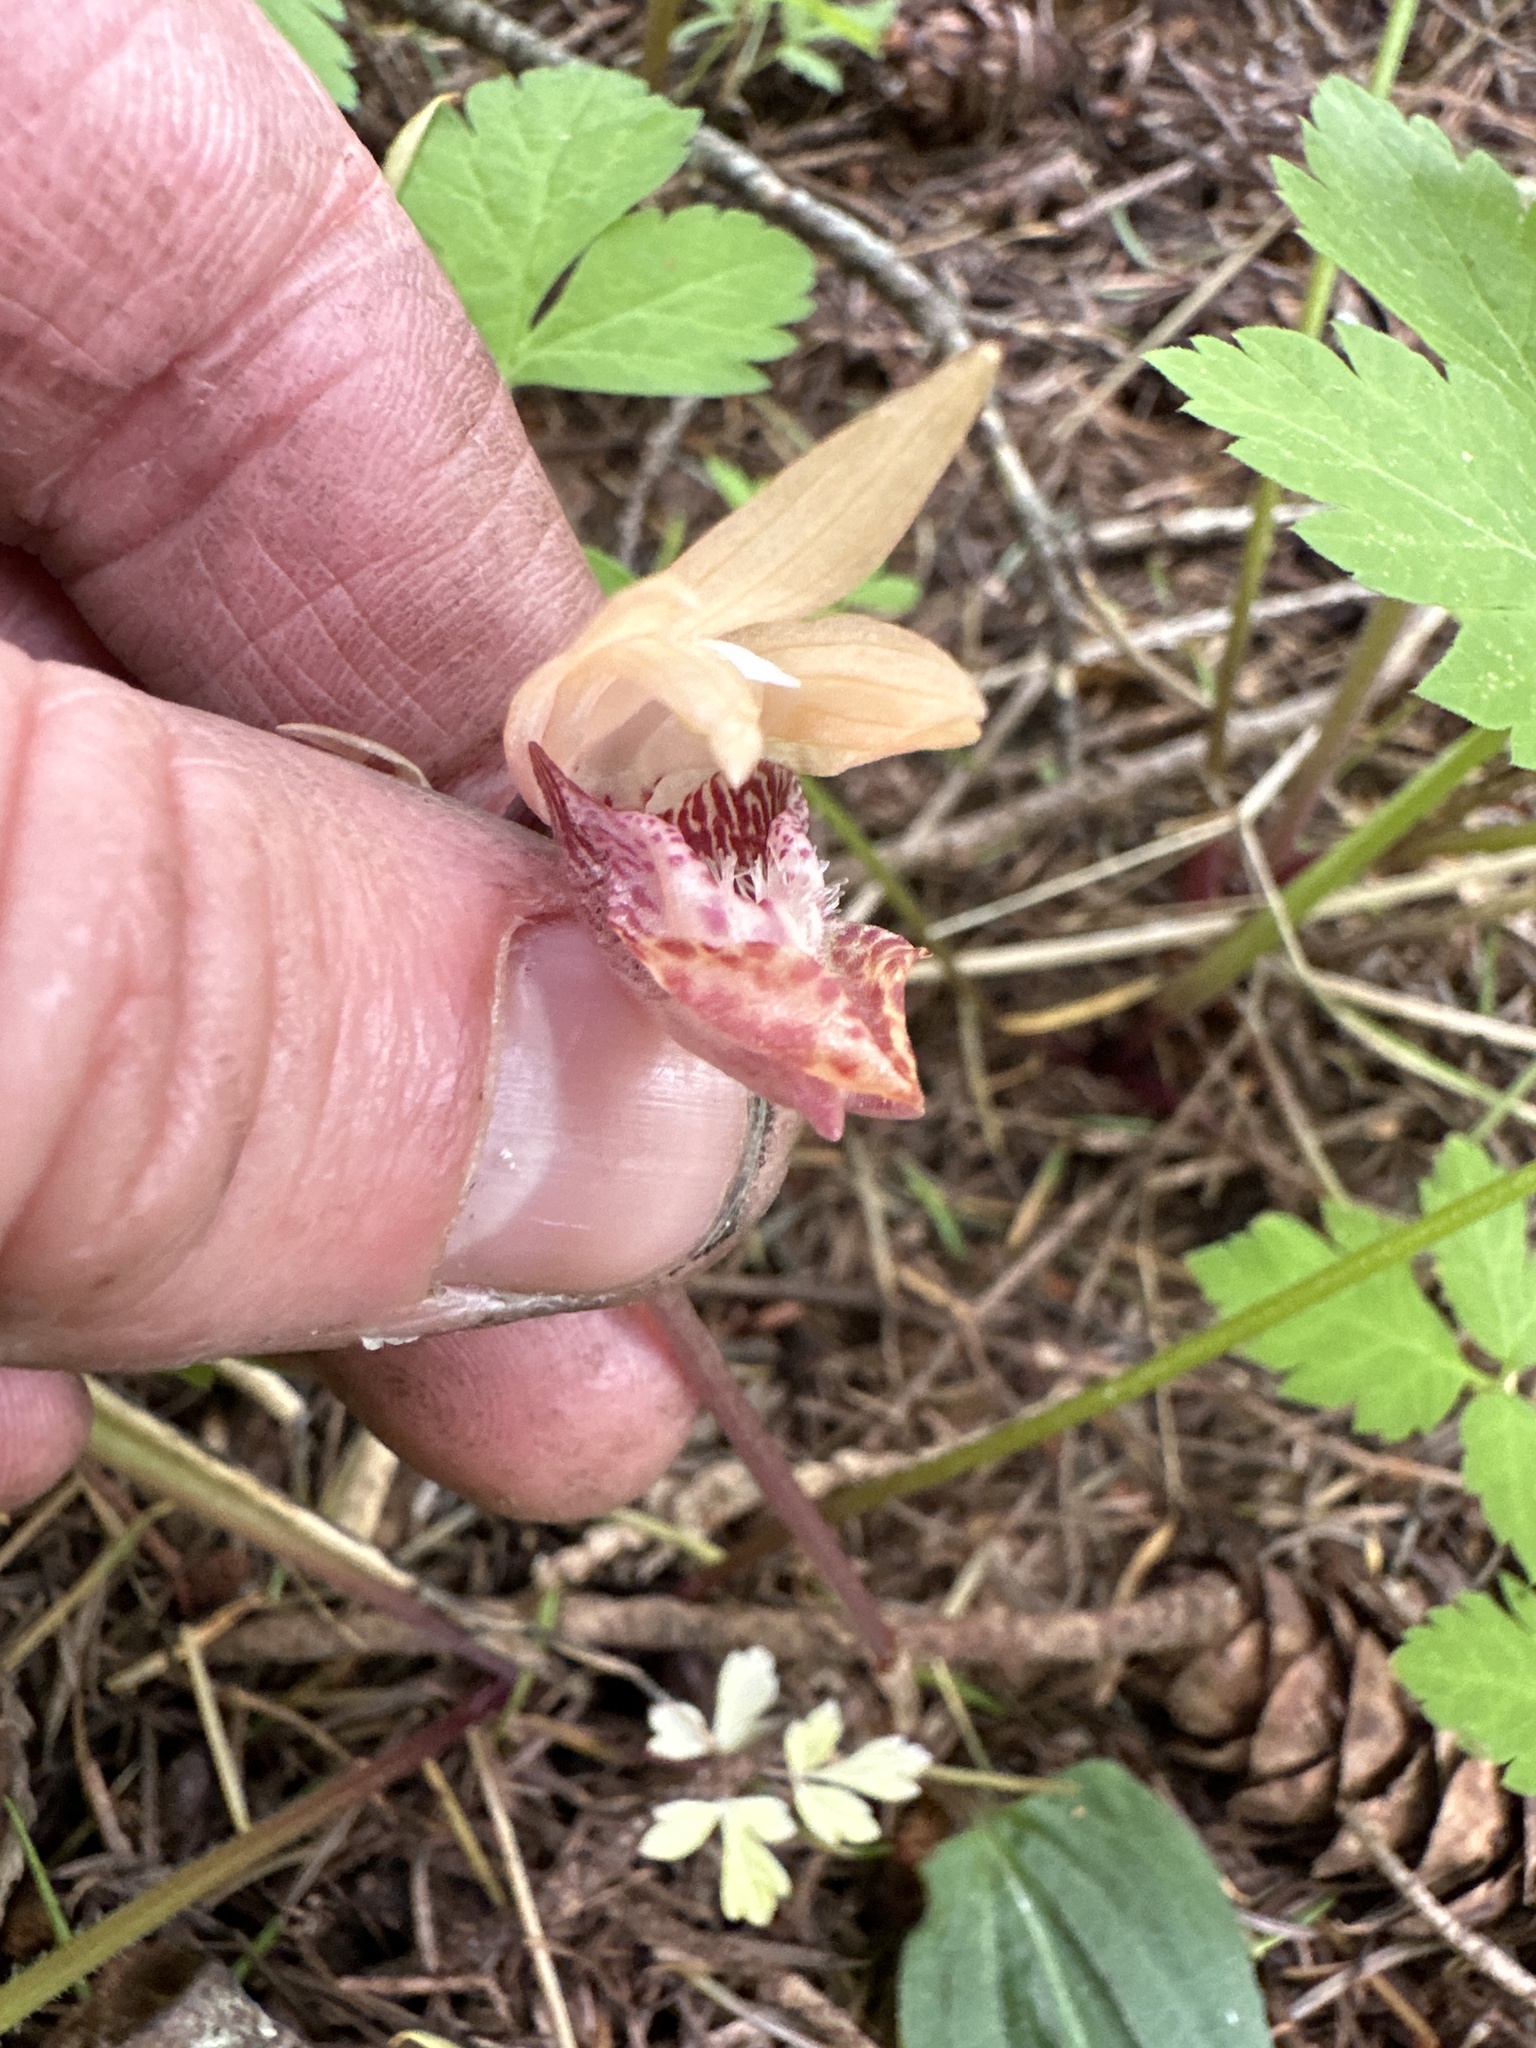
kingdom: Plantae
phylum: Tracheophyta
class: Liliopsida
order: Asparagales
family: Orchidaceae
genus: Calypso
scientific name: Calypso bulbosa
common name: Calypso
